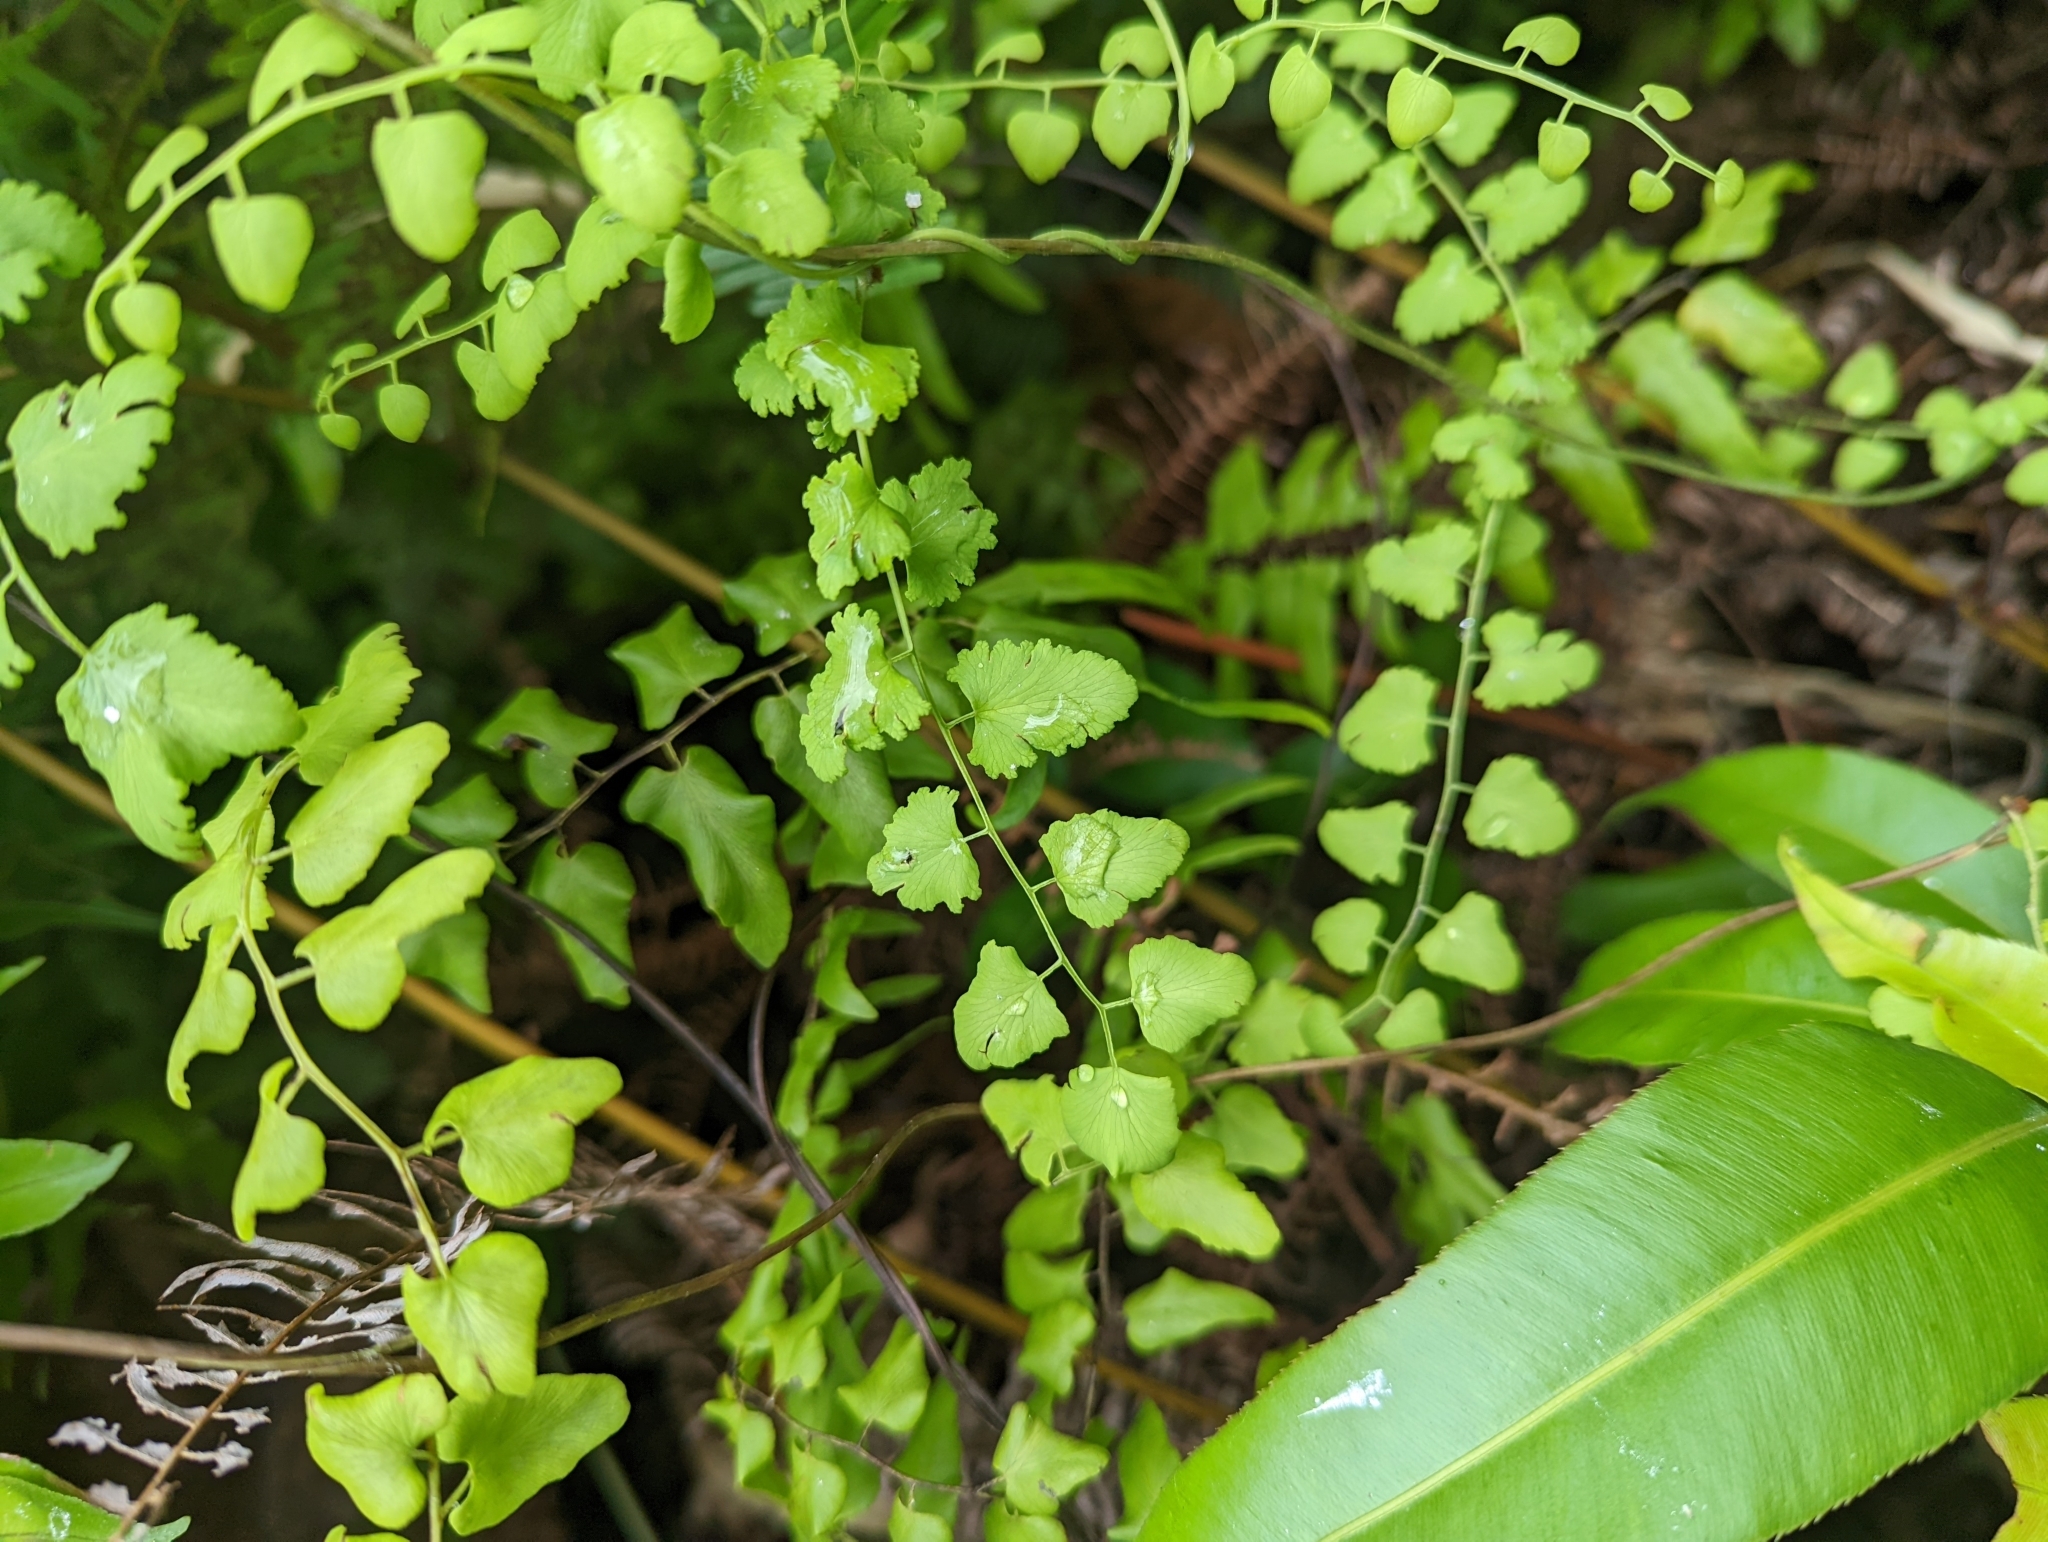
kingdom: Plantae
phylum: Tracheophyta
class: Polypodiopsida
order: Schizaeales
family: Lygodiaceae
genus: Lygodium
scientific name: Lygodium microphyllum
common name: Small-leaf climbing fern
